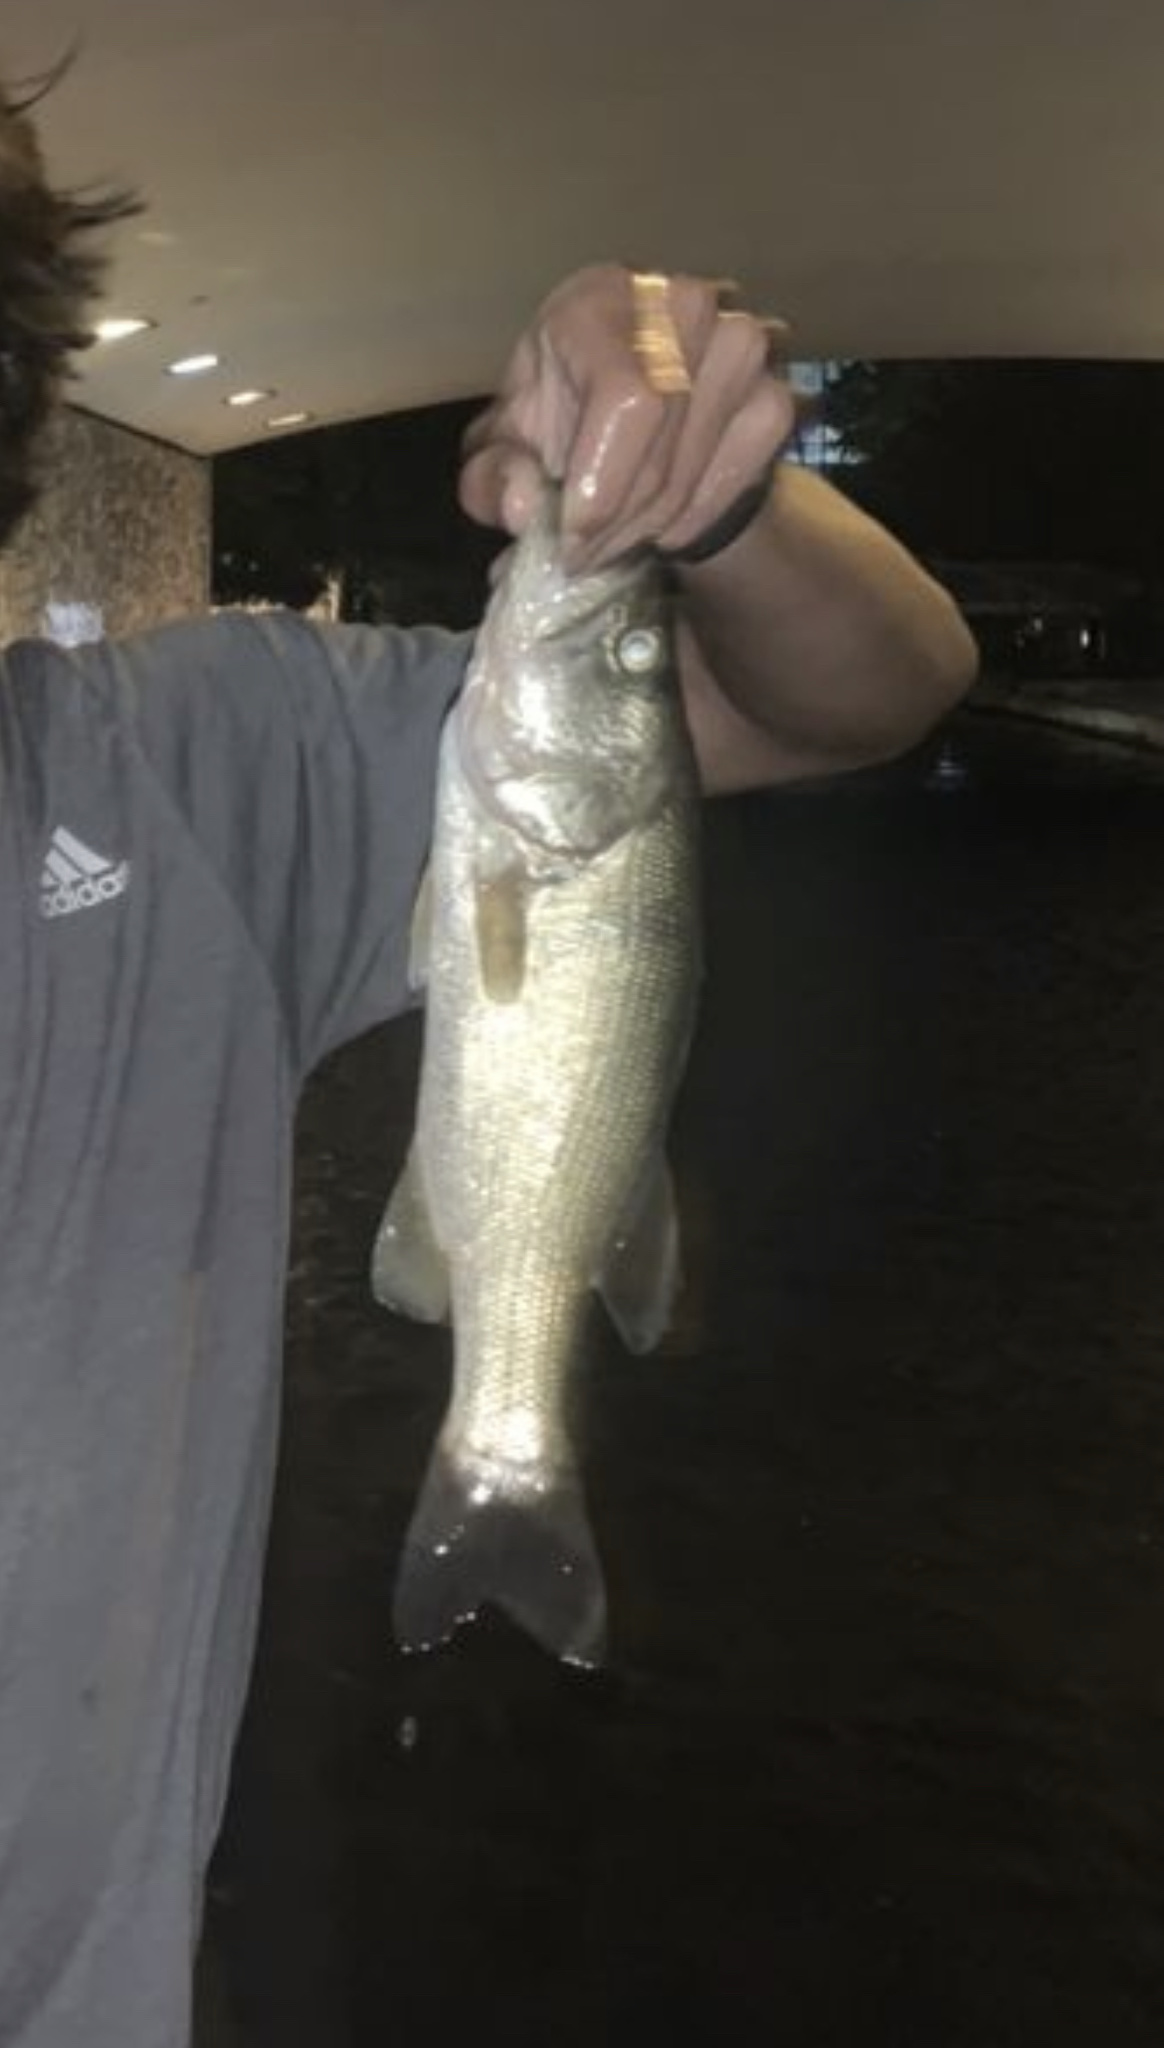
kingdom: Animalia
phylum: Chordata
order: Perciformes
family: Centrarchidae
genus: Micropterus
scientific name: Micropterus
